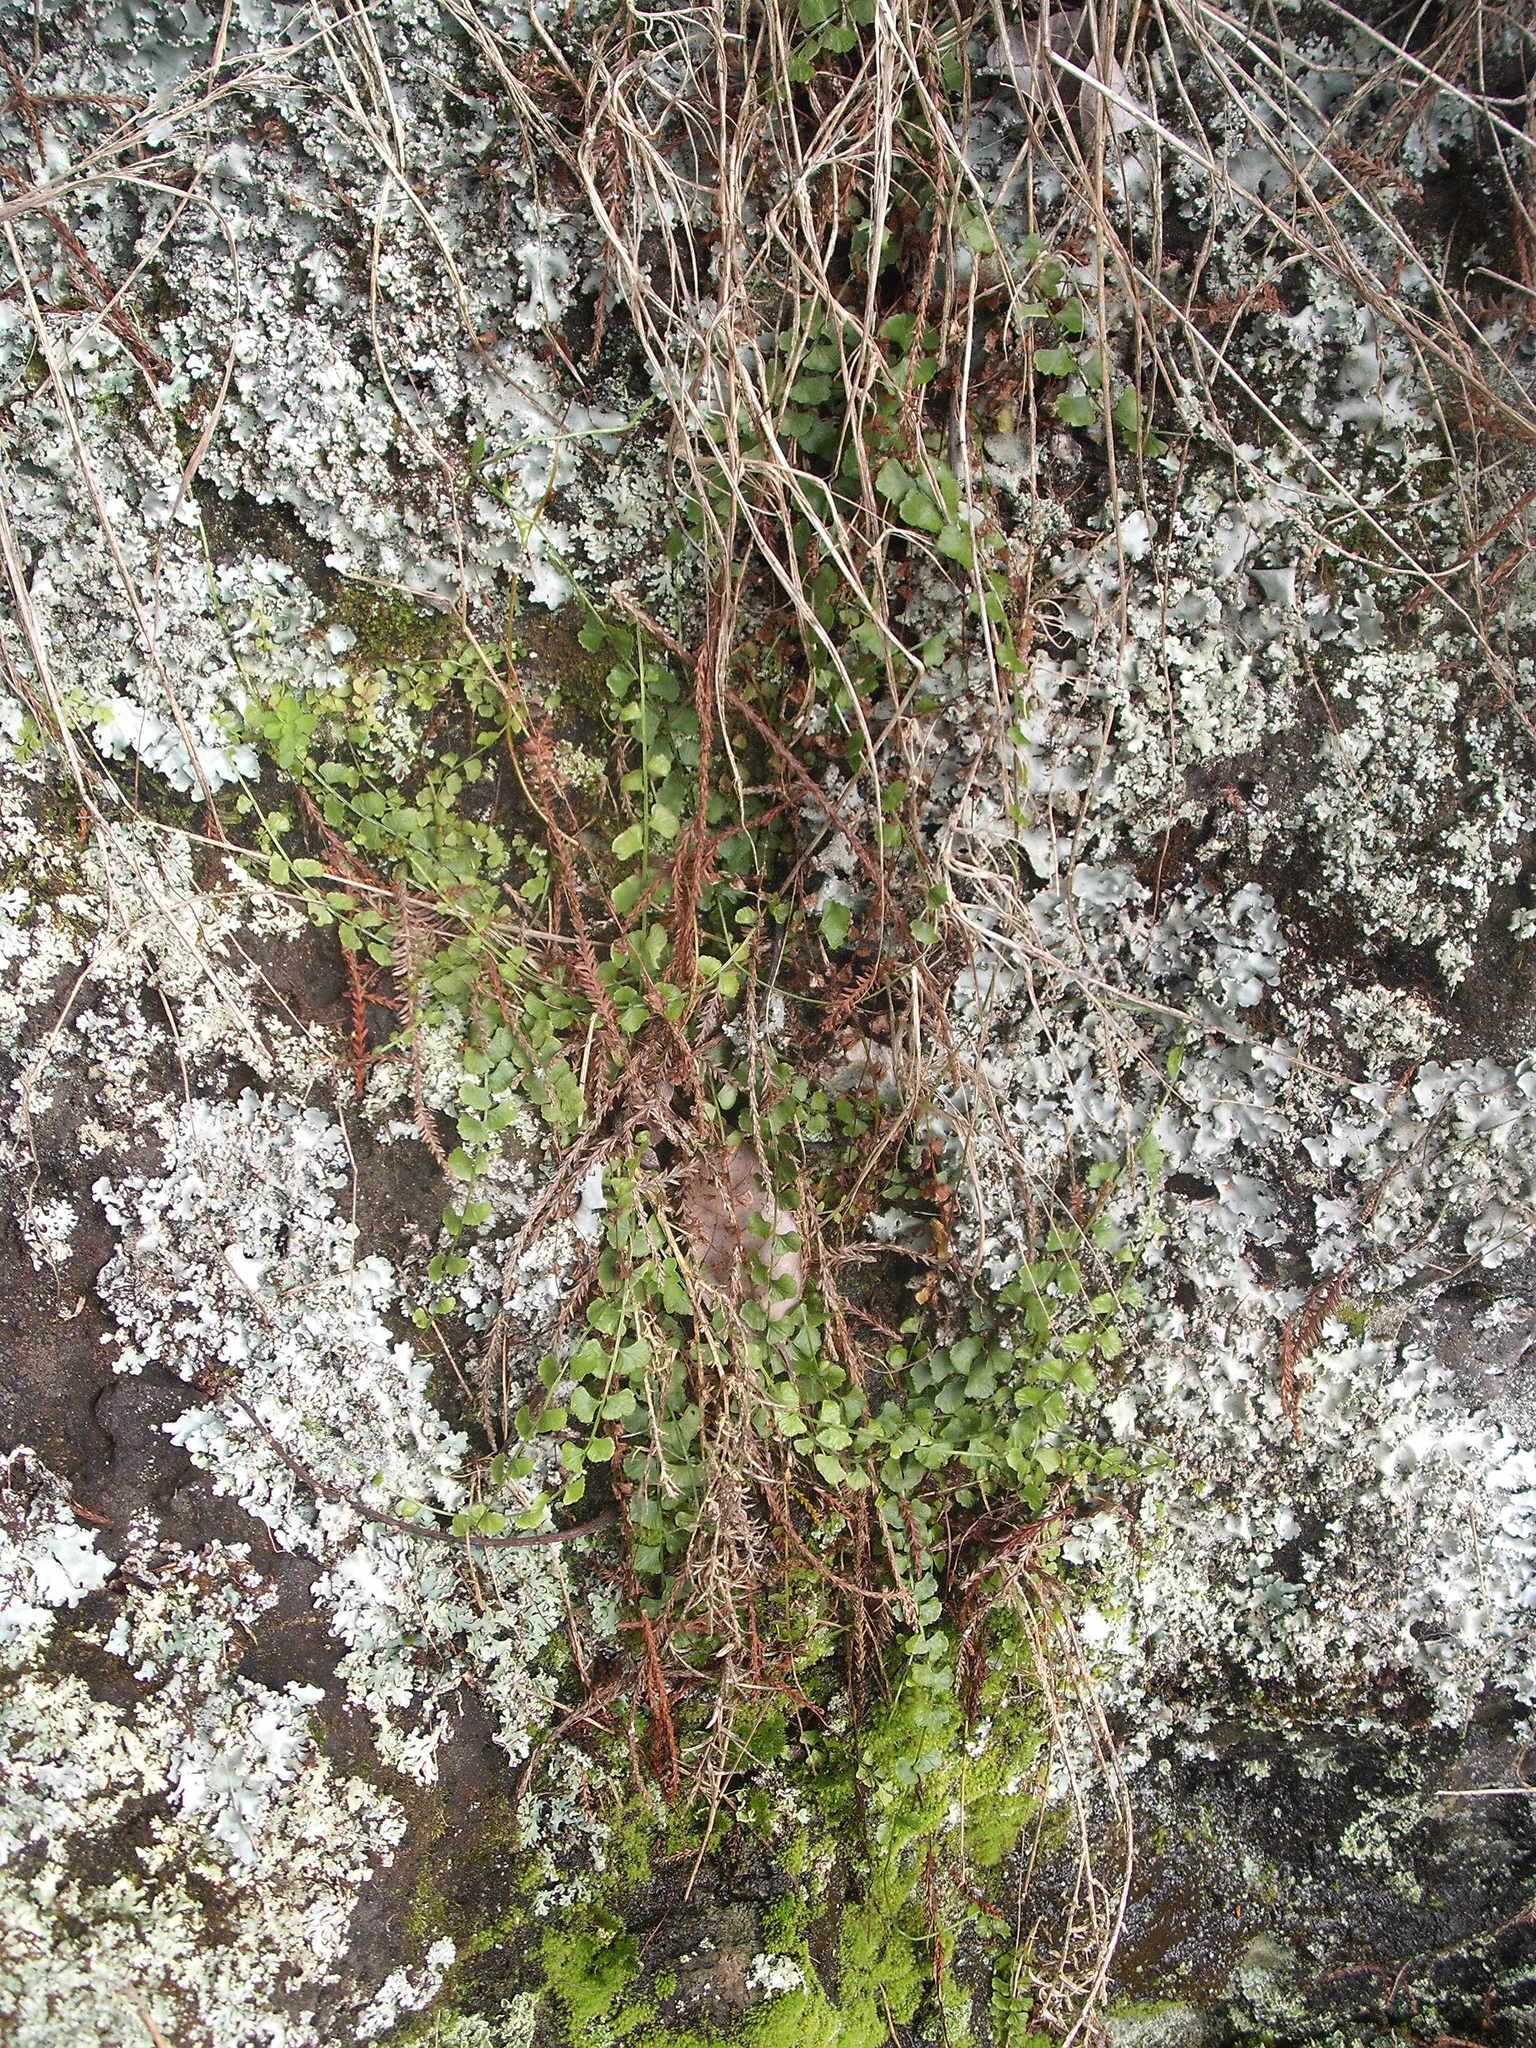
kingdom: Plantae
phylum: Tracheophyta
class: Polypodiopsida
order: Polypodiales
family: Aspleniaceae
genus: Asplenium
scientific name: Asplenium flabellifolium
